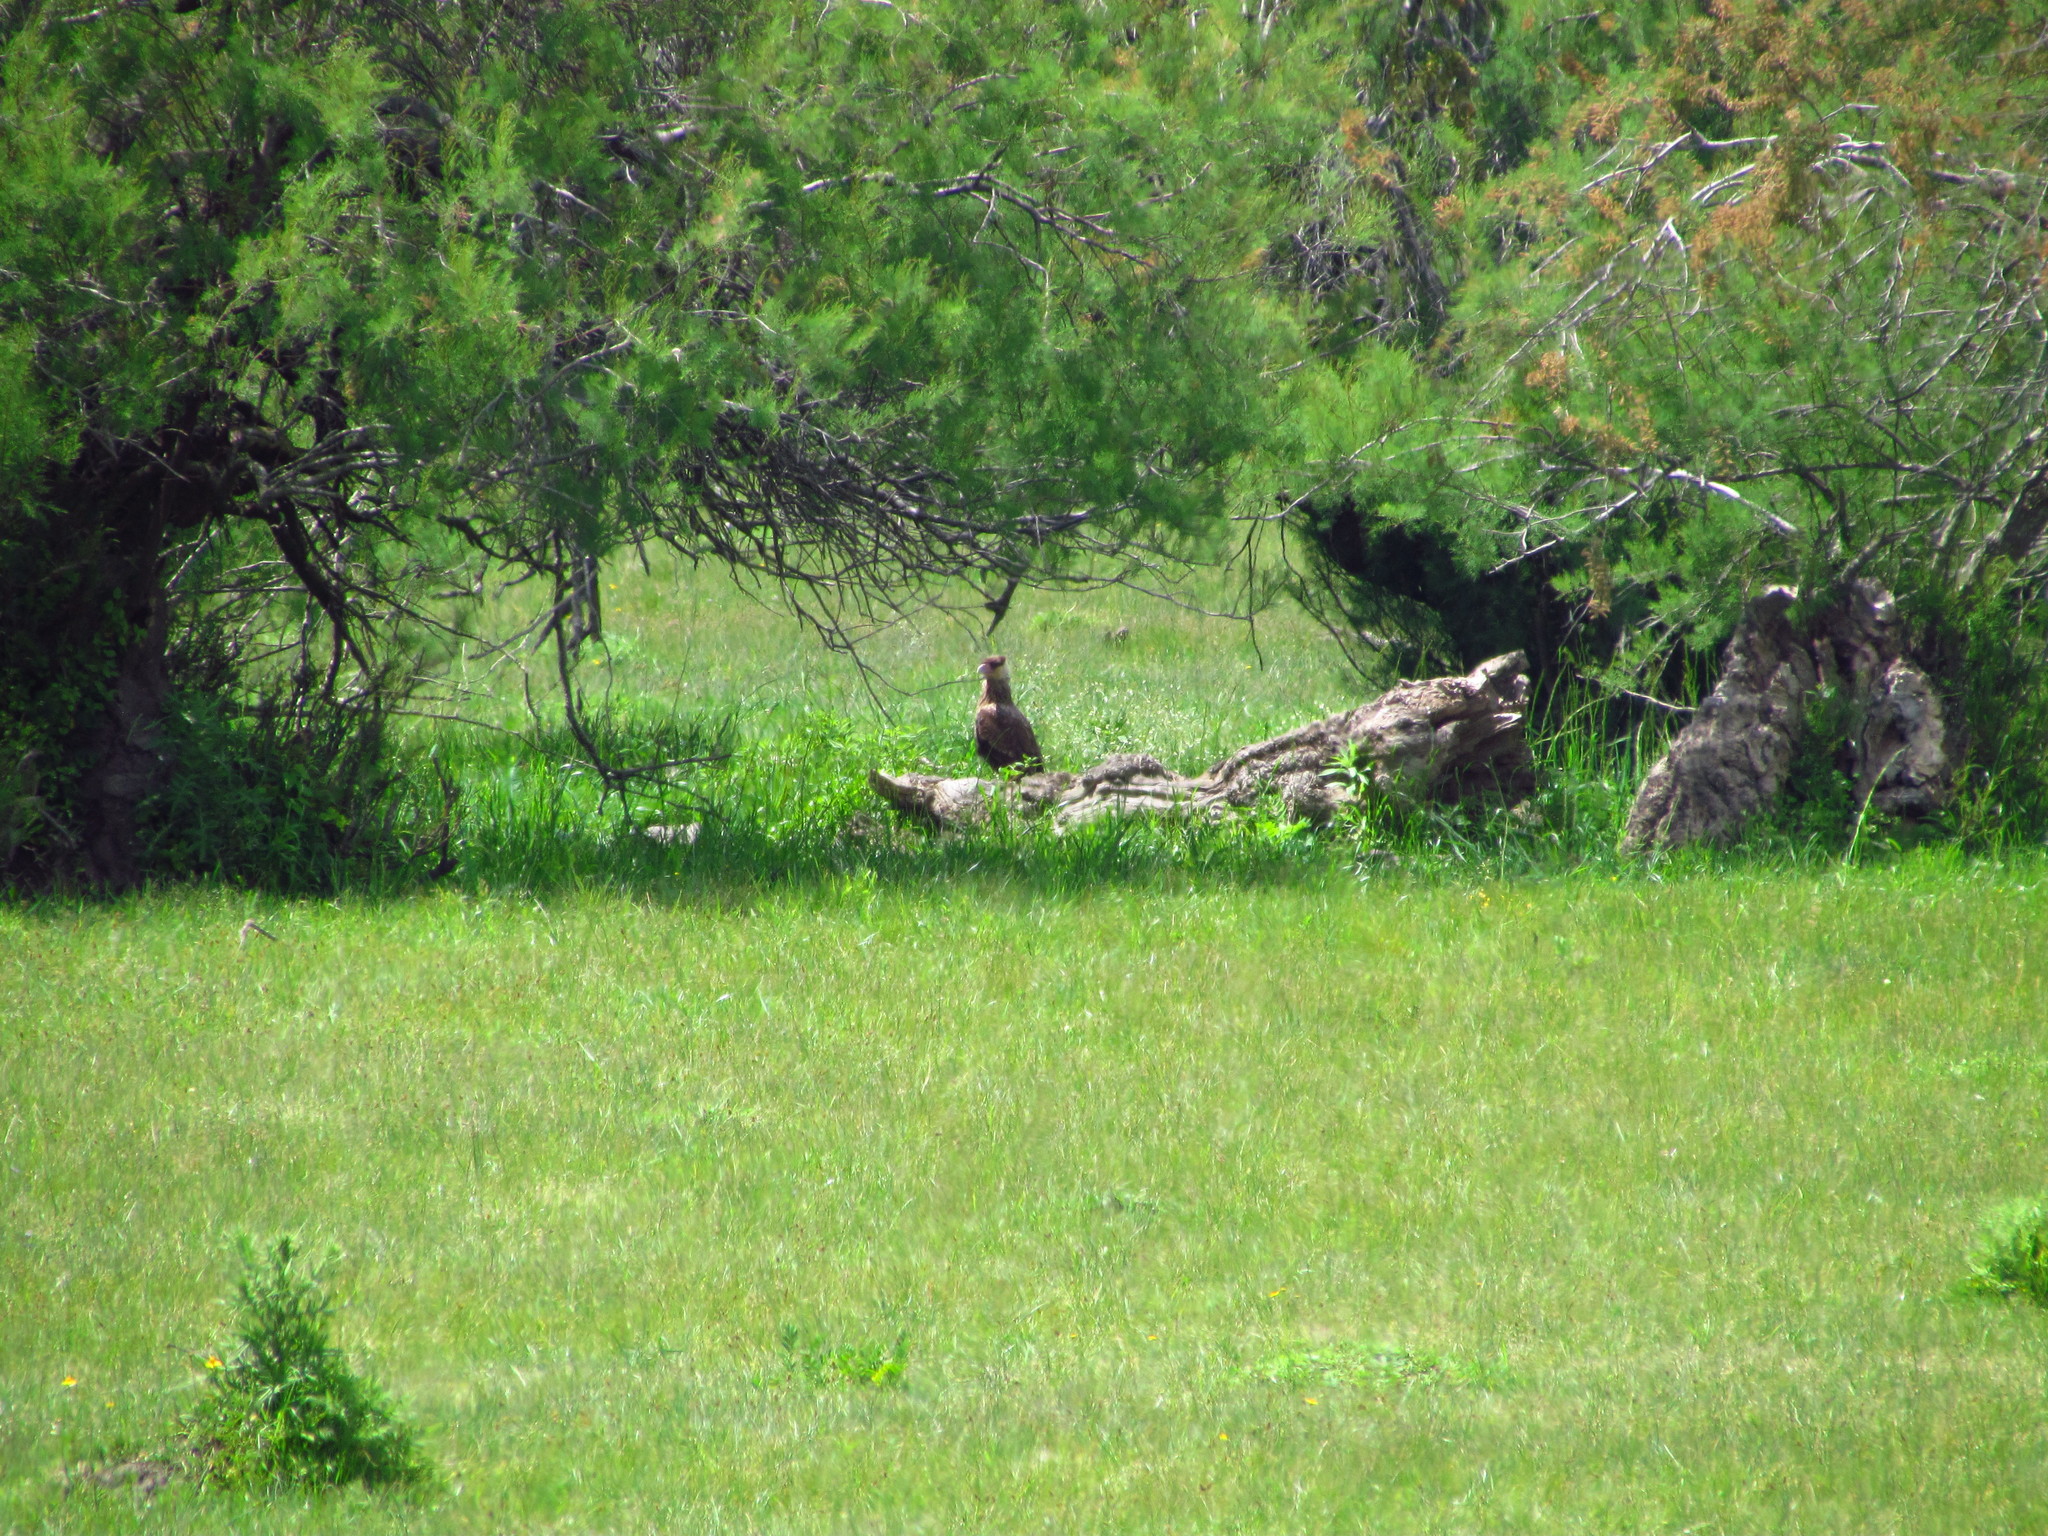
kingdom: Animalia
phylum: Chordata
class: Aves
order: Falconiformes
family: Falconidae
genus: Caracara
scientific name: Caracara plancus
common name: Southern caracara
